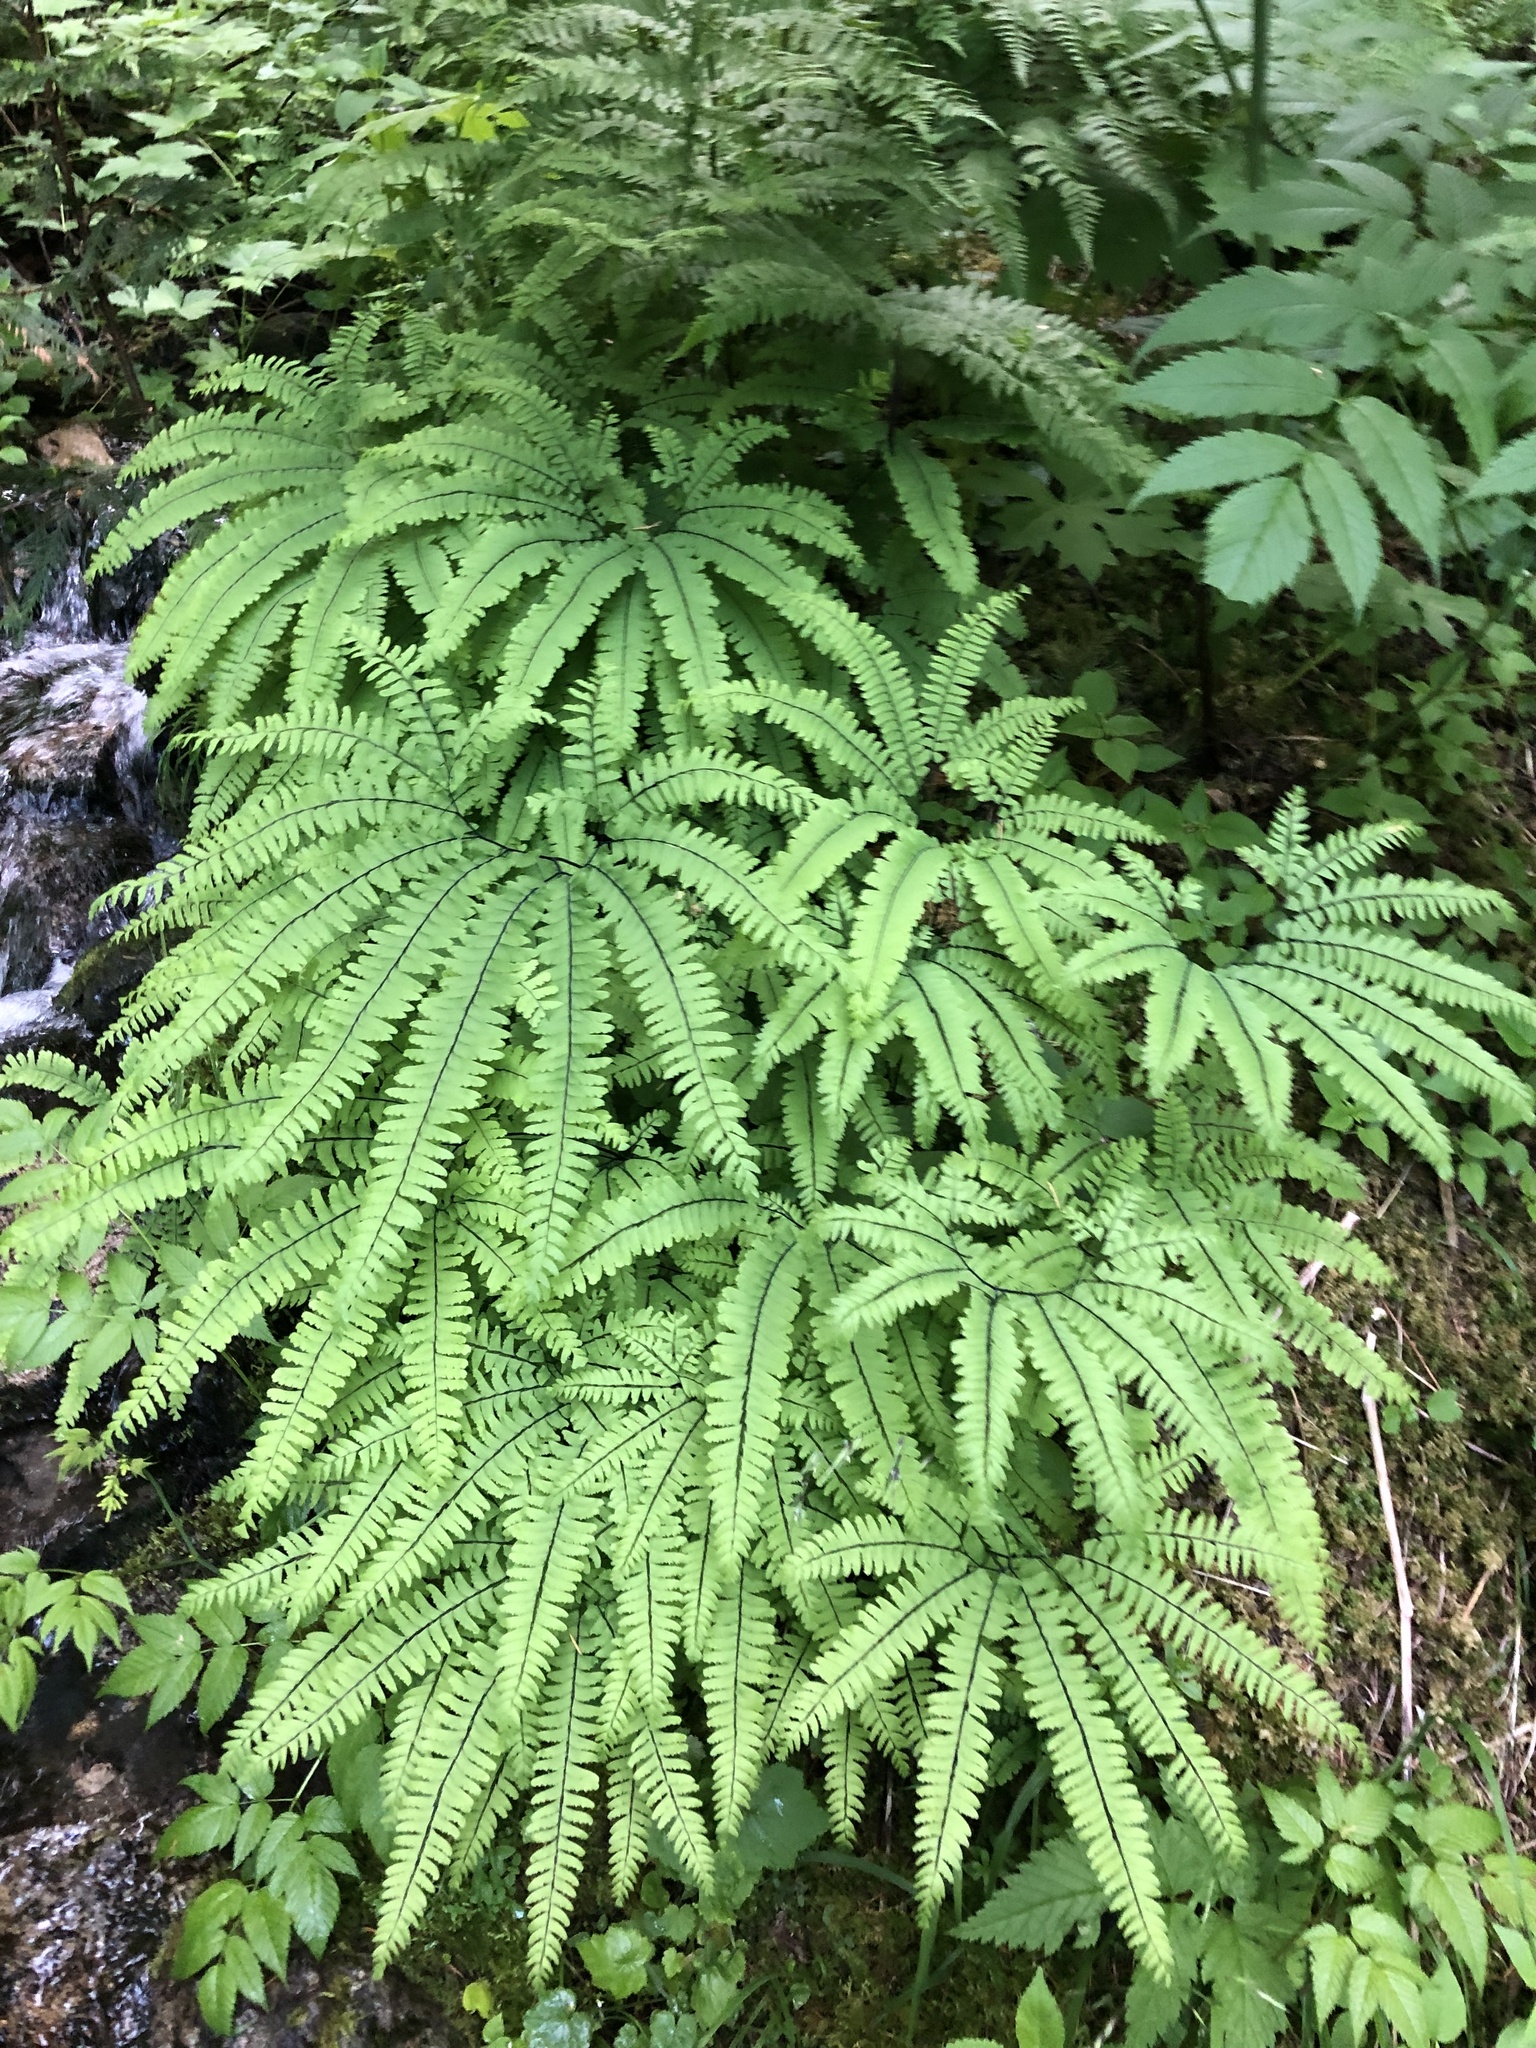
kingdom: Plantae
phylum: Tracheophyta
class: Polypodiopsida
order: Polypodiales
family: Pteridaceae
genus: Adiantum
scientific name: Adiantum aleuticum
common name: Aleutian maidenhair fern
